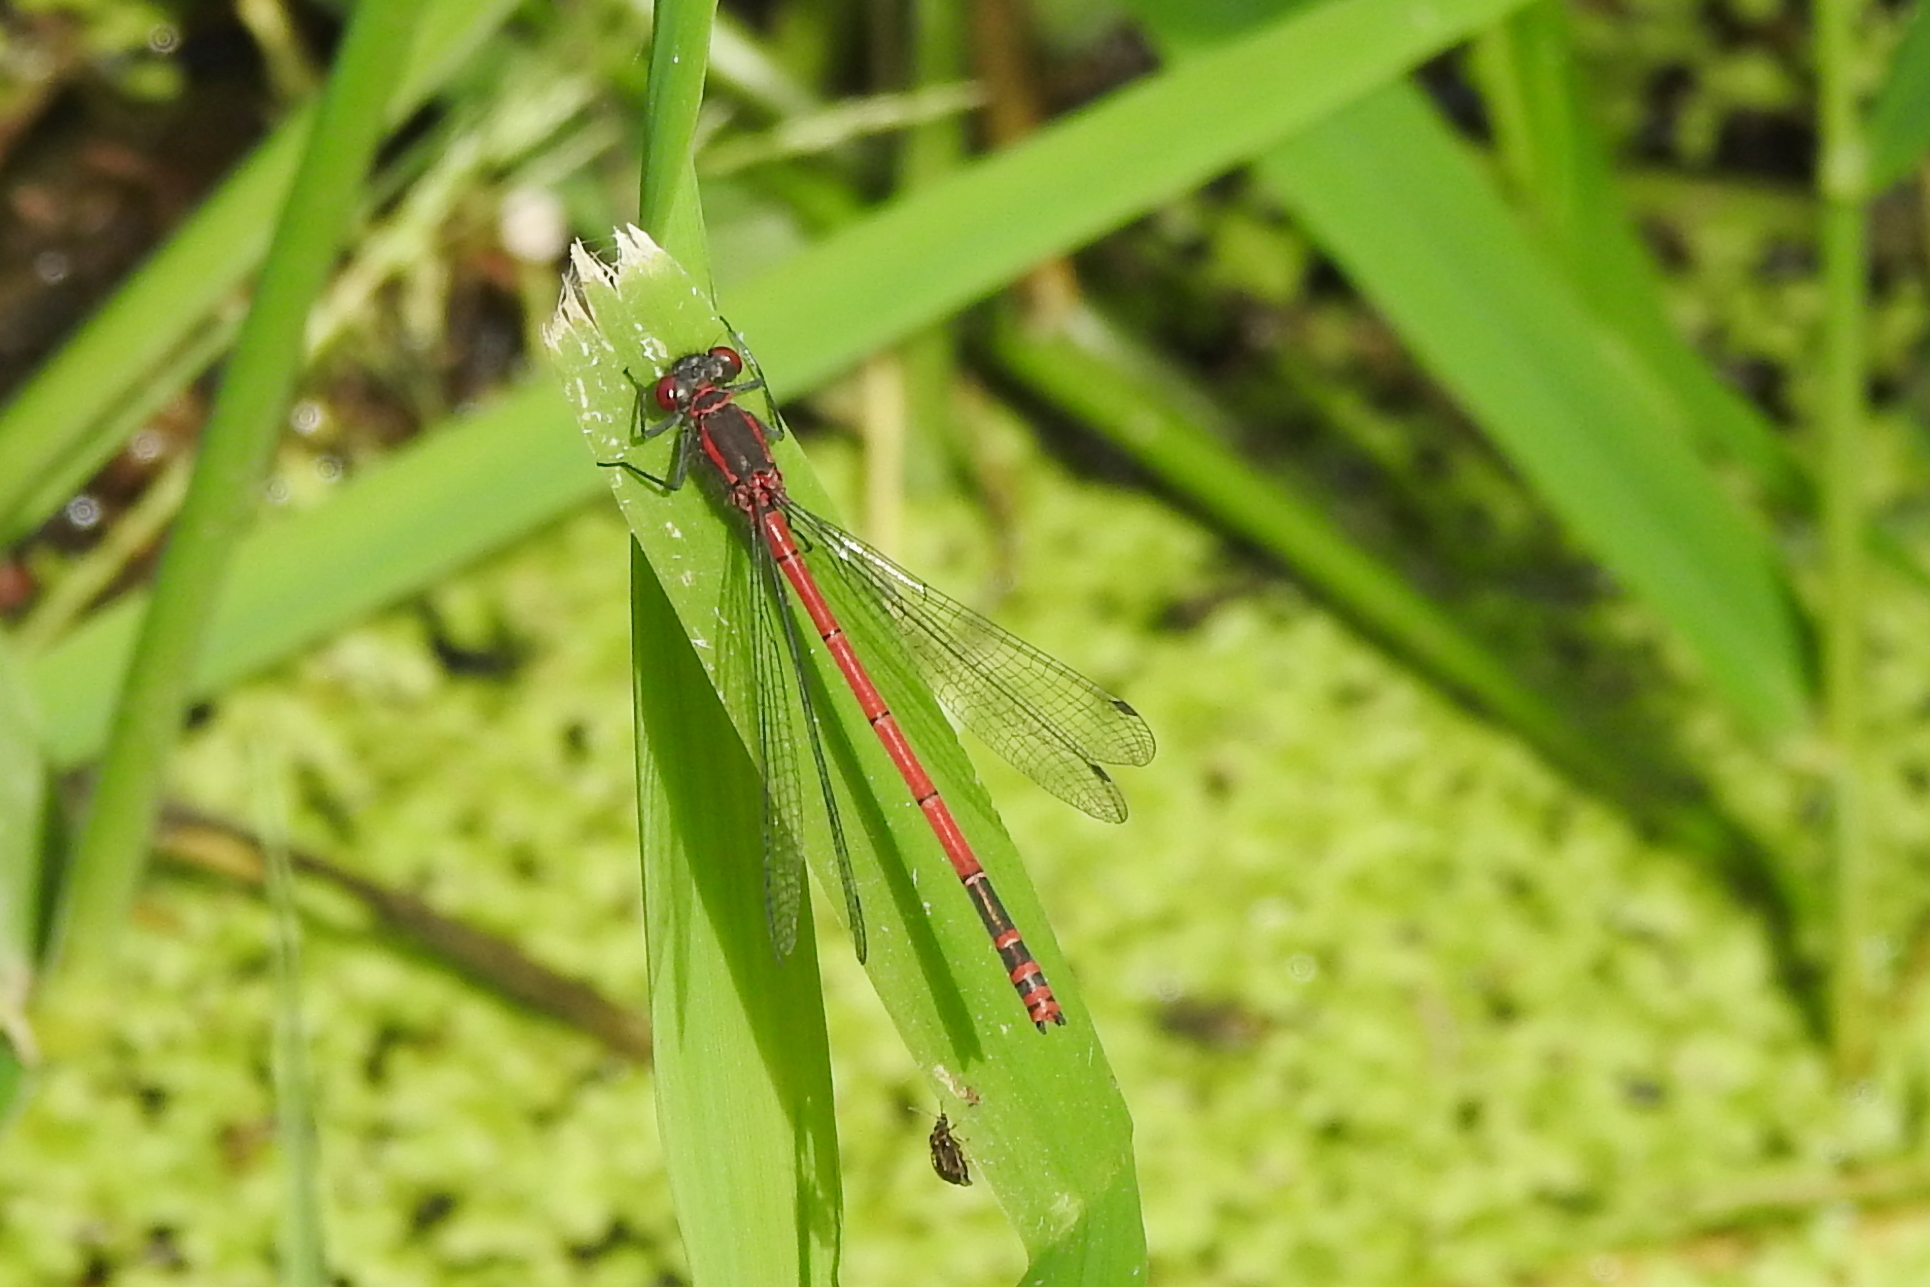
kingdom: Animalia
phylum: Arthropoda
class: Insecta
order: Odonata
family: Coenagrionidae
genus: Pyrrhosoma
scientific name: Pyrrhosoma nymphula
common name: Large red damsel
